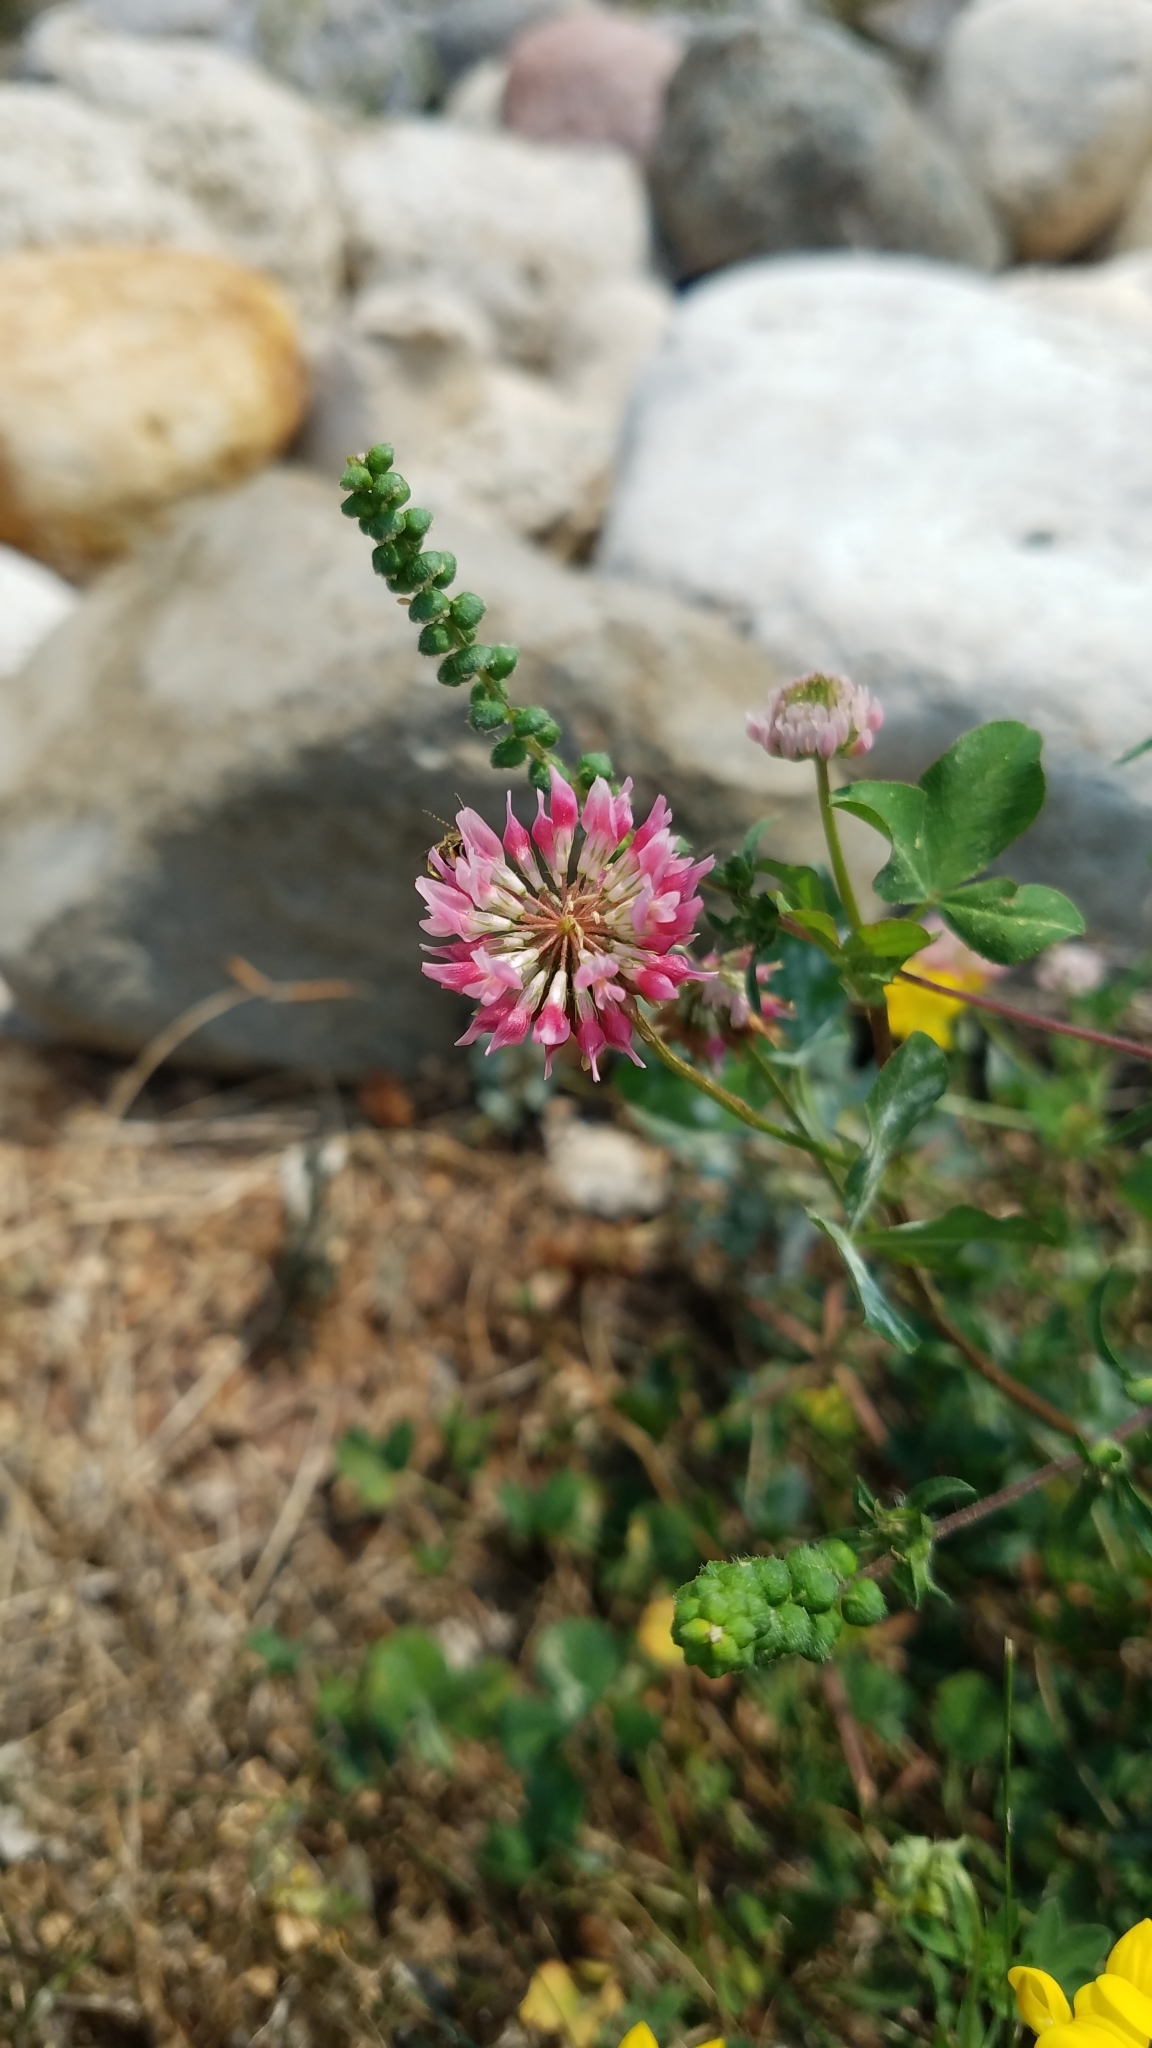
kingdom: Plantae
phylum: Tracheophyta
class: Magnoliopsida
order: Fabales
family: Fabaceae
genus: Trifolium
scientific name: Trifolium hybridum
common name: Alsike clover
